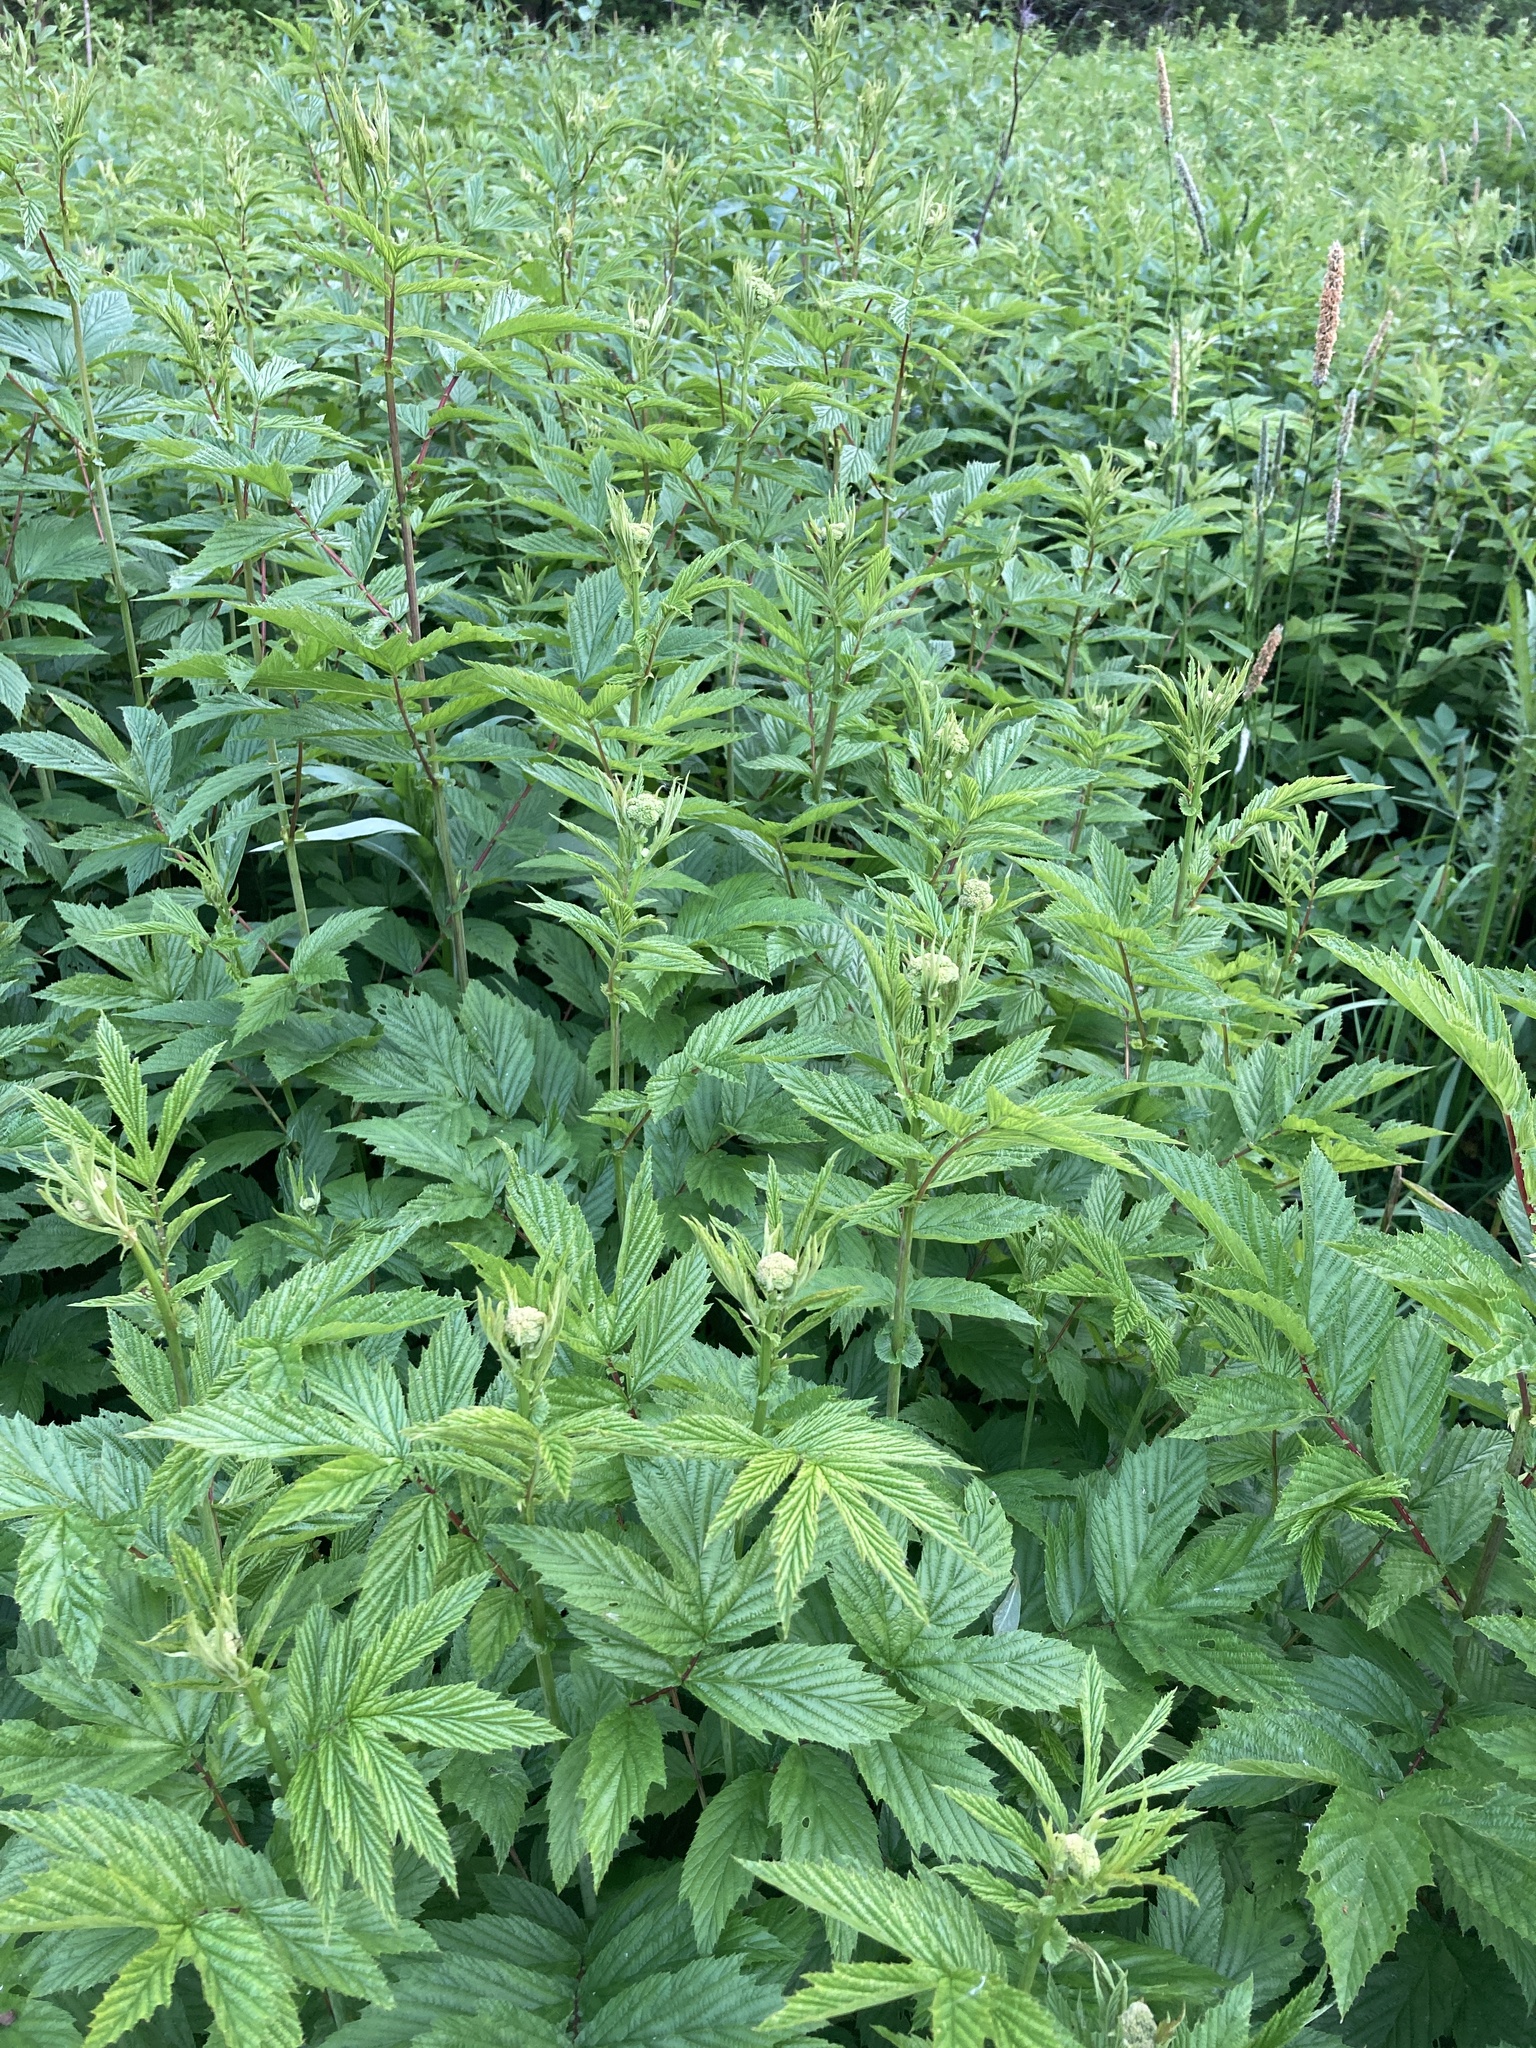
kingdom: Plantae
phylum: Tracheophyta
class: Magnoliopsida
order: Rosales
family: Rosaceae
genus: Filipendula
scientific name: Filipendula ulmaria
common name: Meadowsweet
